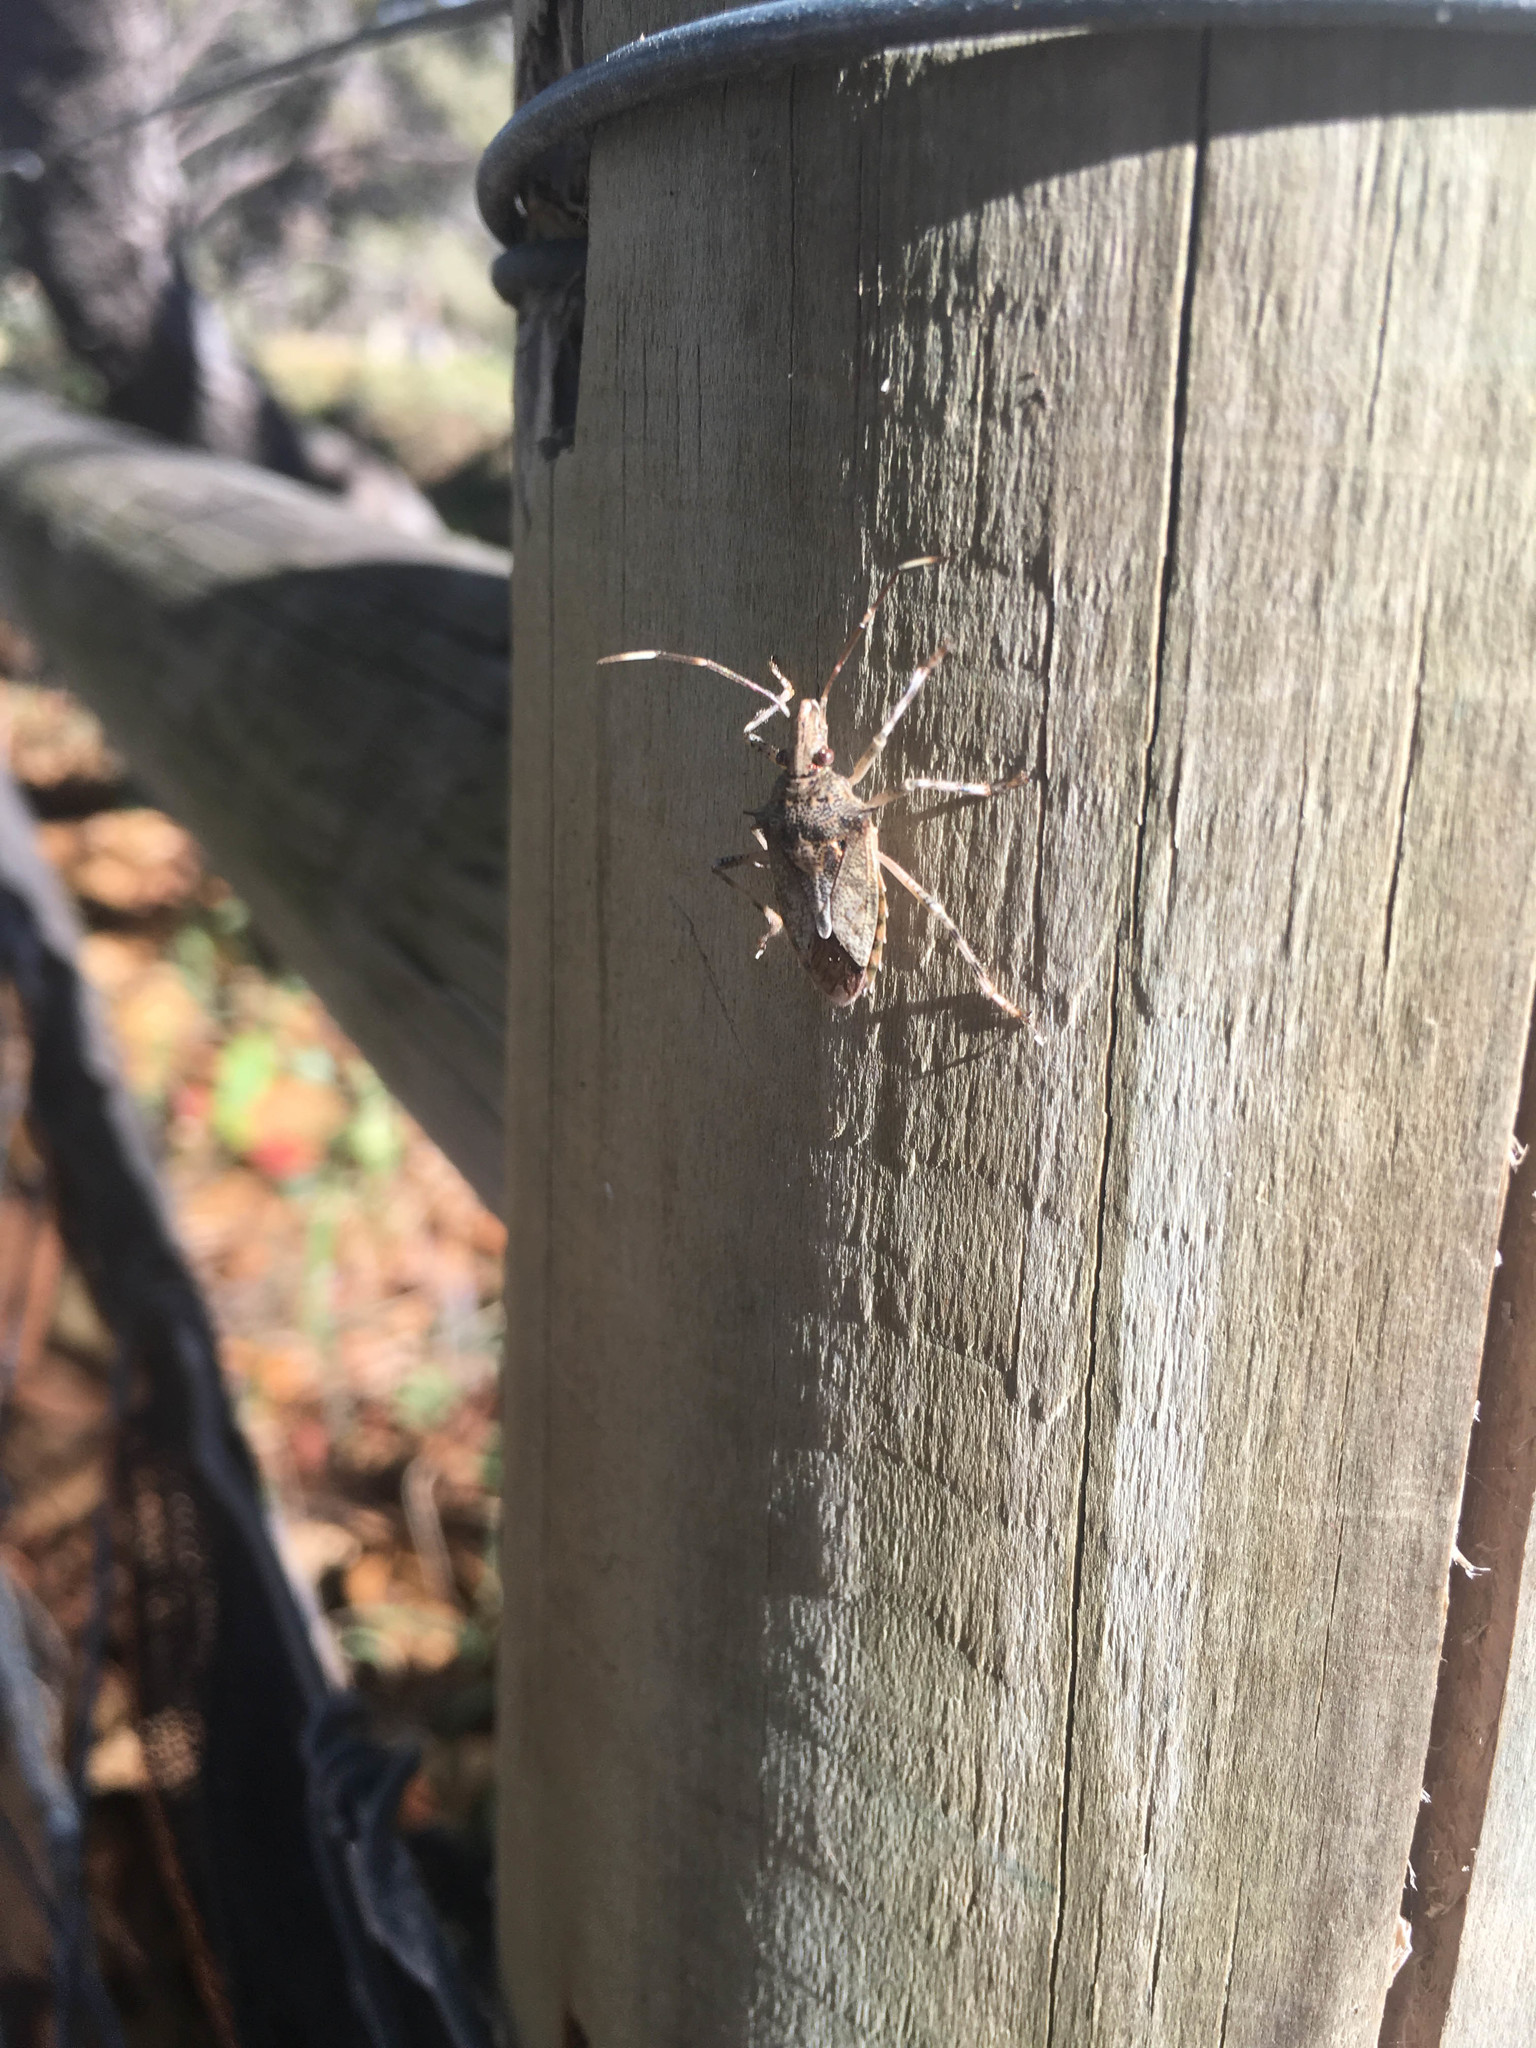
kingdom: Animalia
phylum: Arthropoda
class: Insecta
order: Hemiptera
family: Pentatomidae
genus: Bromocoris
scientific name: Bromocoris
